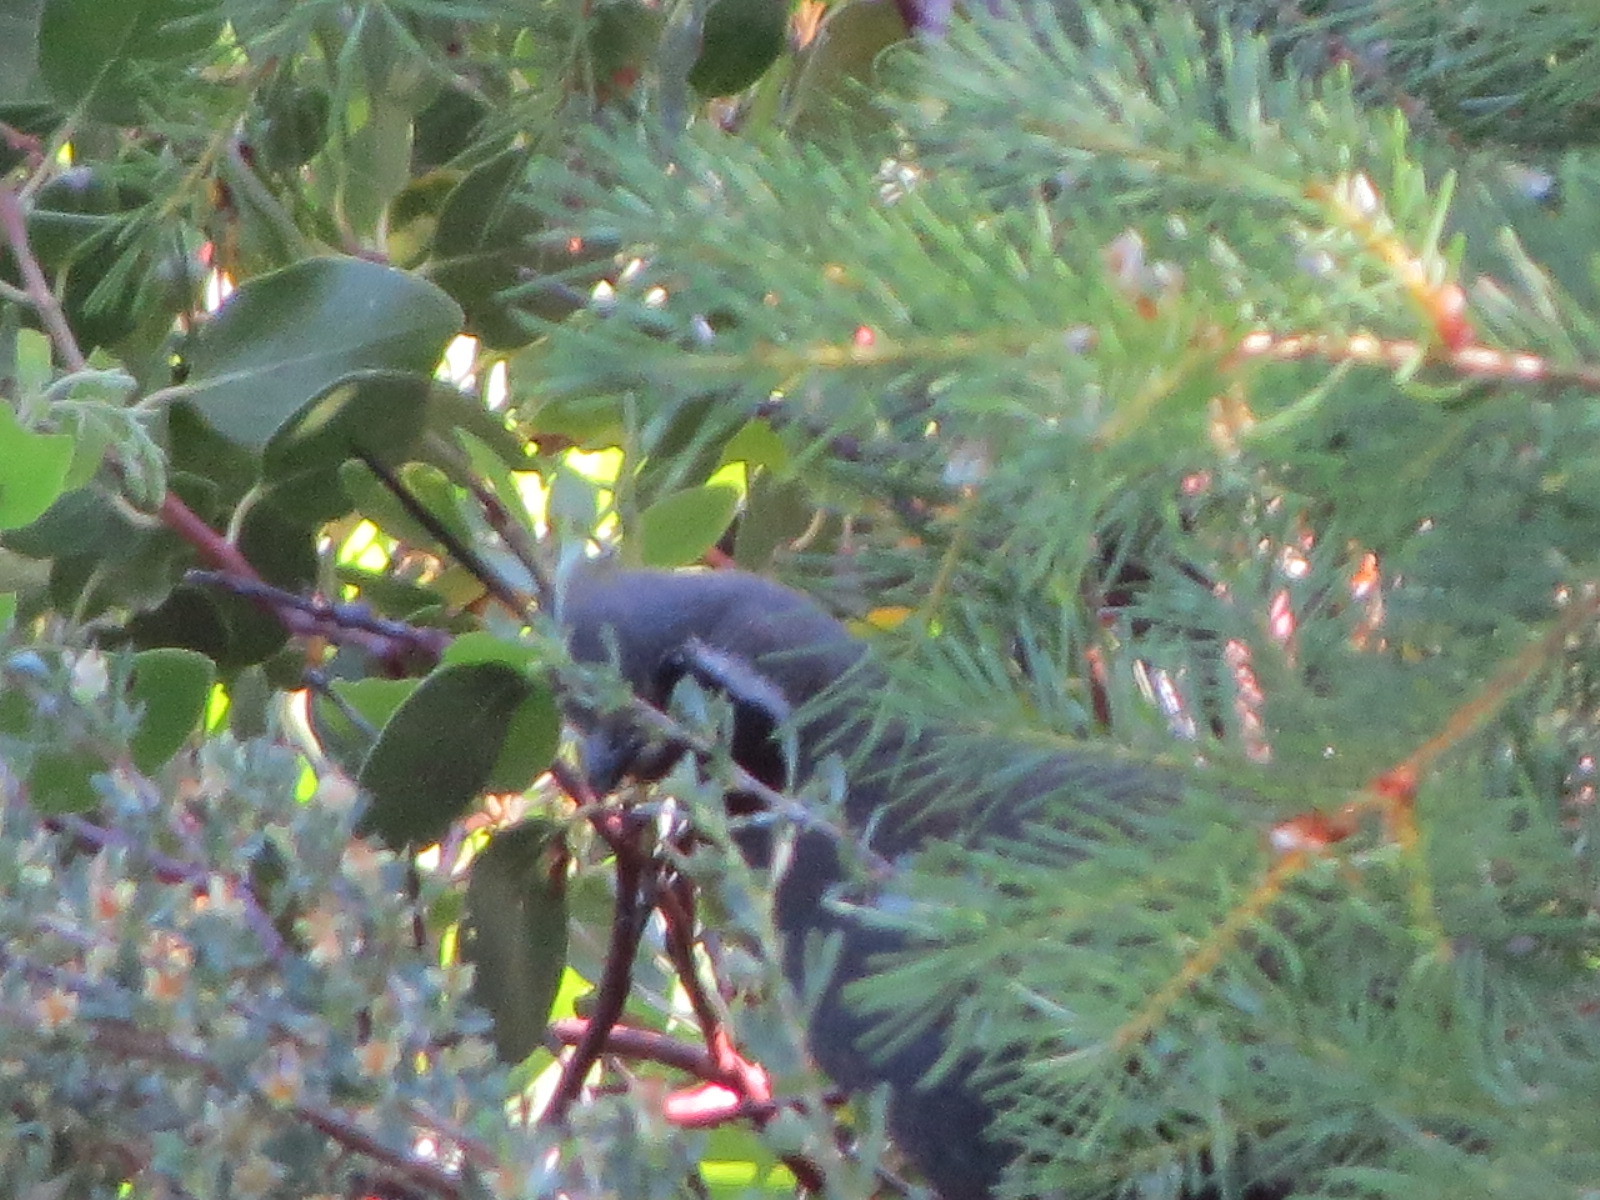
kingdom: Animalia
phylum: Chordata
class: Aves
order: Galliformes
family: Odontophoridae
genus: Oreortyx
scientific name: Oreortyx pictus
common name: Mountain quail
